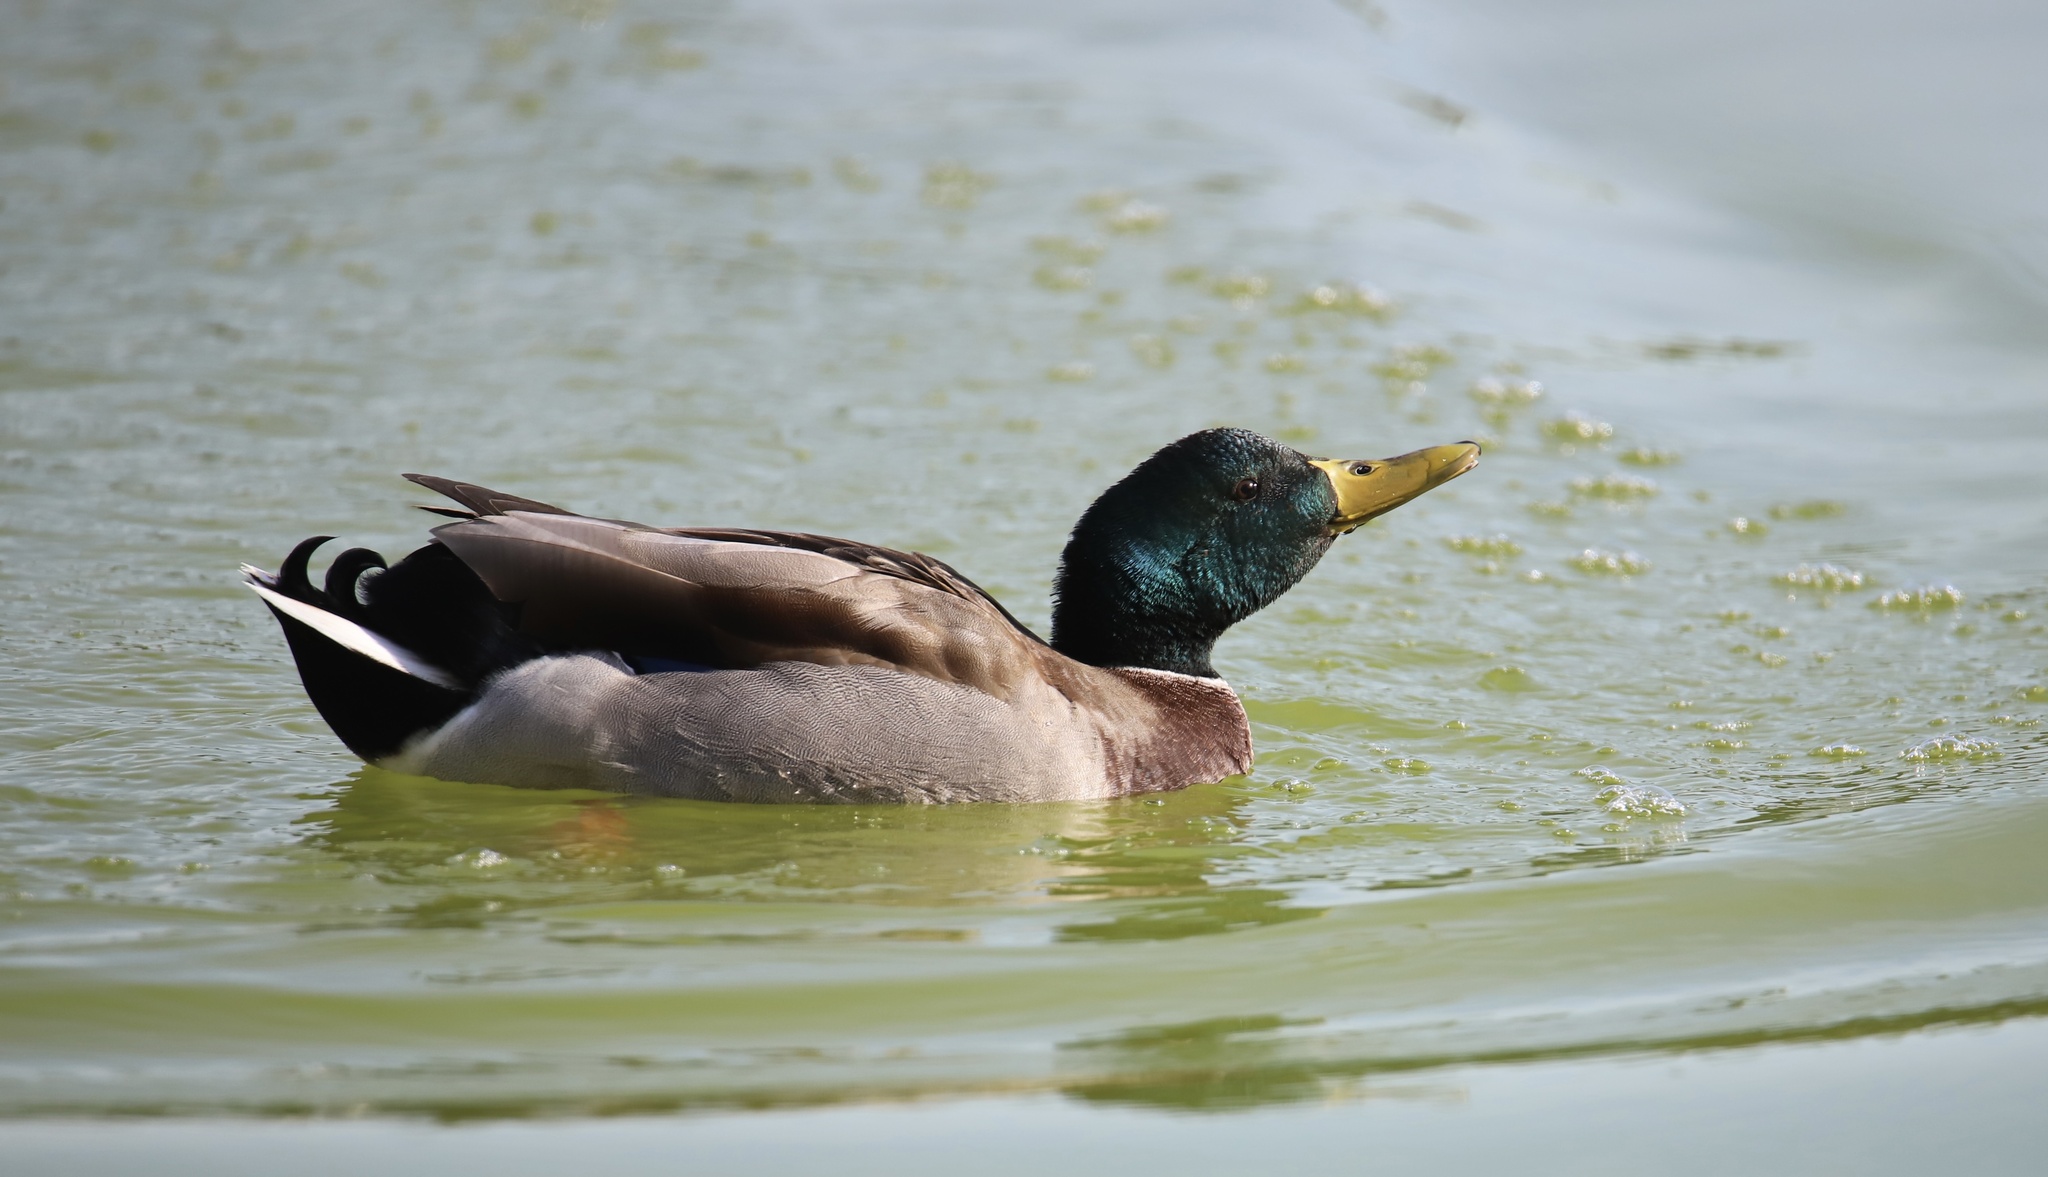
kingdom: Animalia
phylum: Chordata
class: Aves
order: Anseriformes
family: Anatidae
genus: Anas
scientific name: Anas platyrhynchos
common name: Mallard
